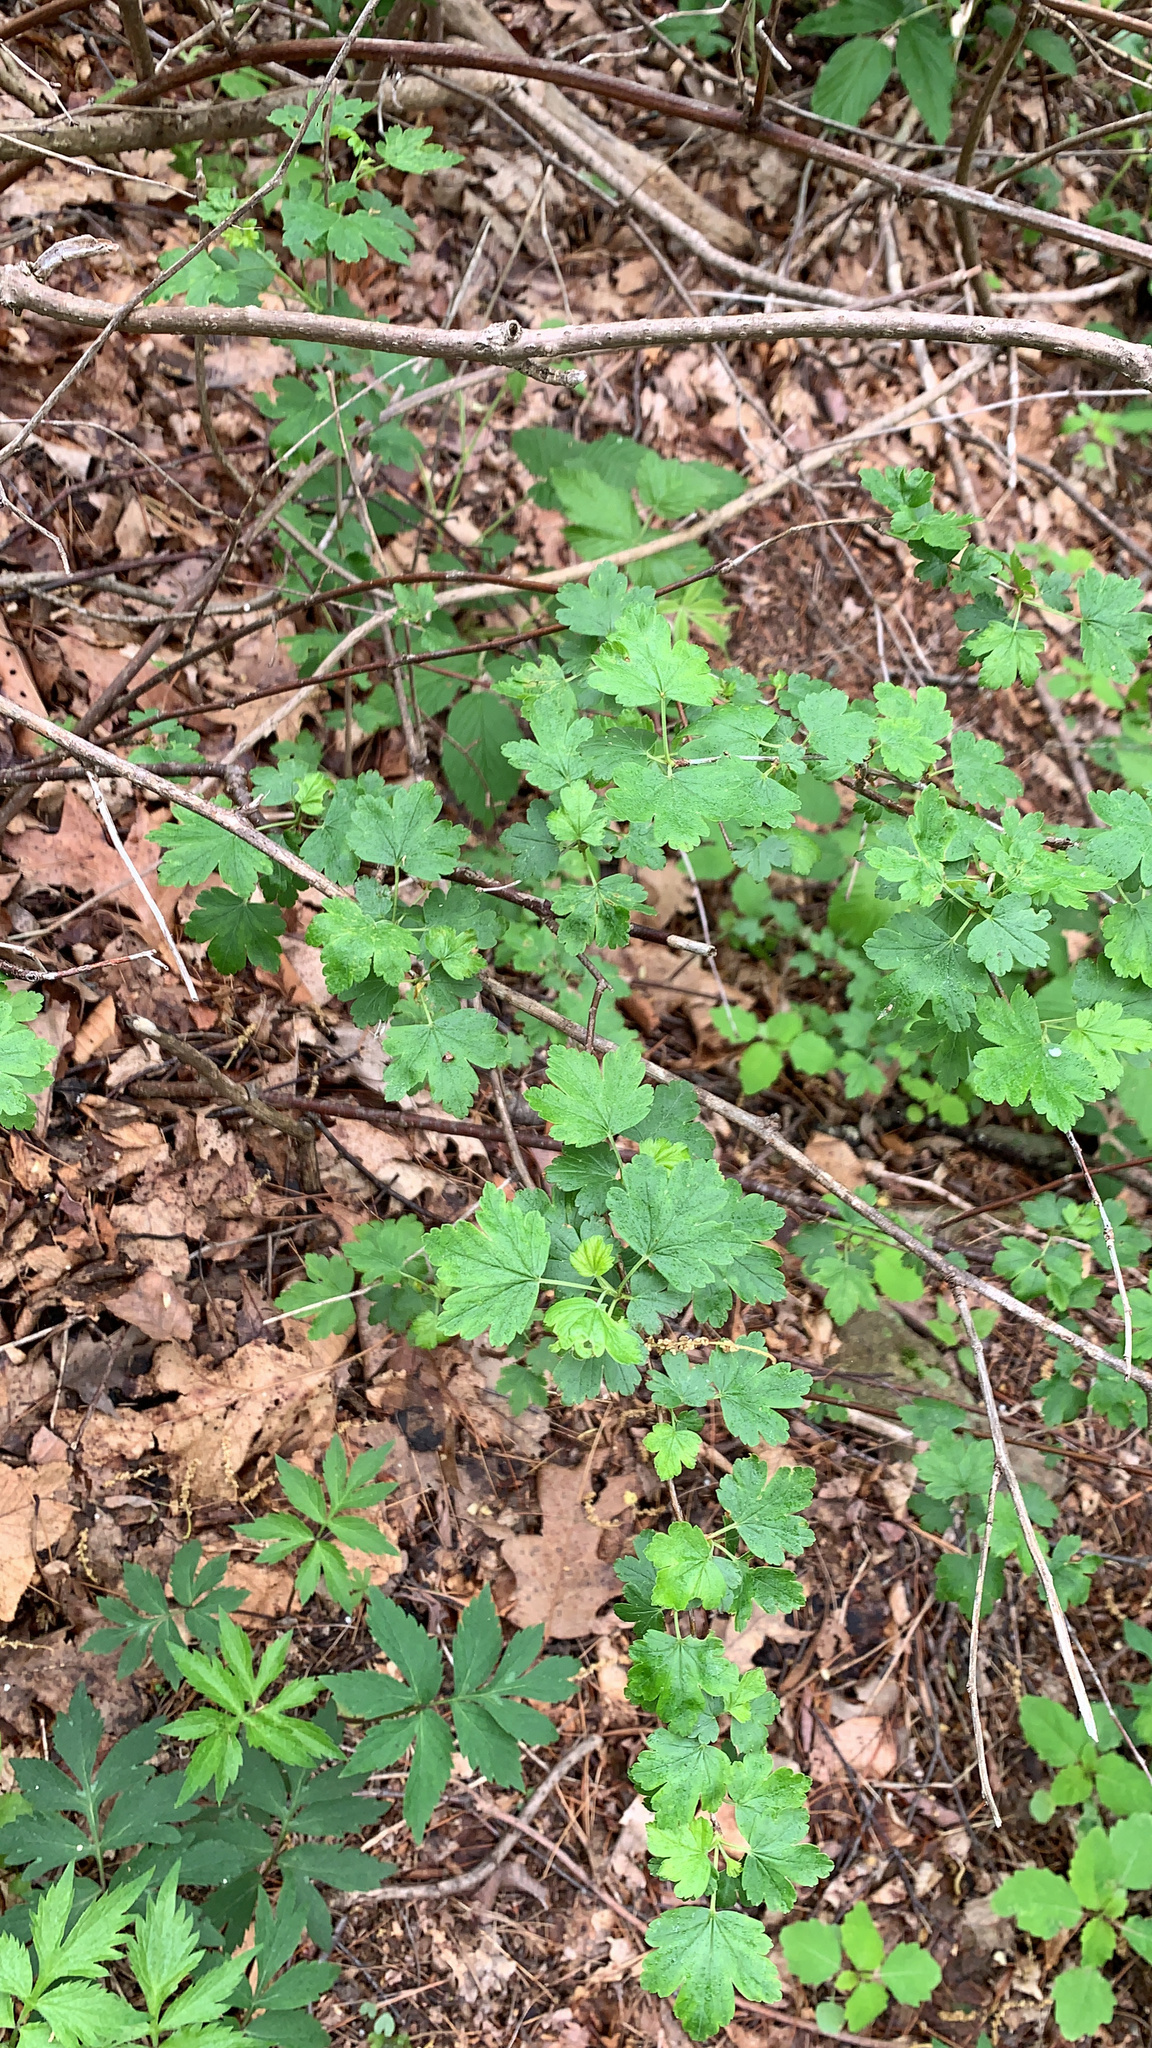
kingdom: Plantae
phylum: Tracheophyta
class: Magnoliopsida
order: Saxifragales
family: Grossulariaceae
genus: Ribes
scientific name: Ribes rotundifolium
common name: Appalachian gooseberry
